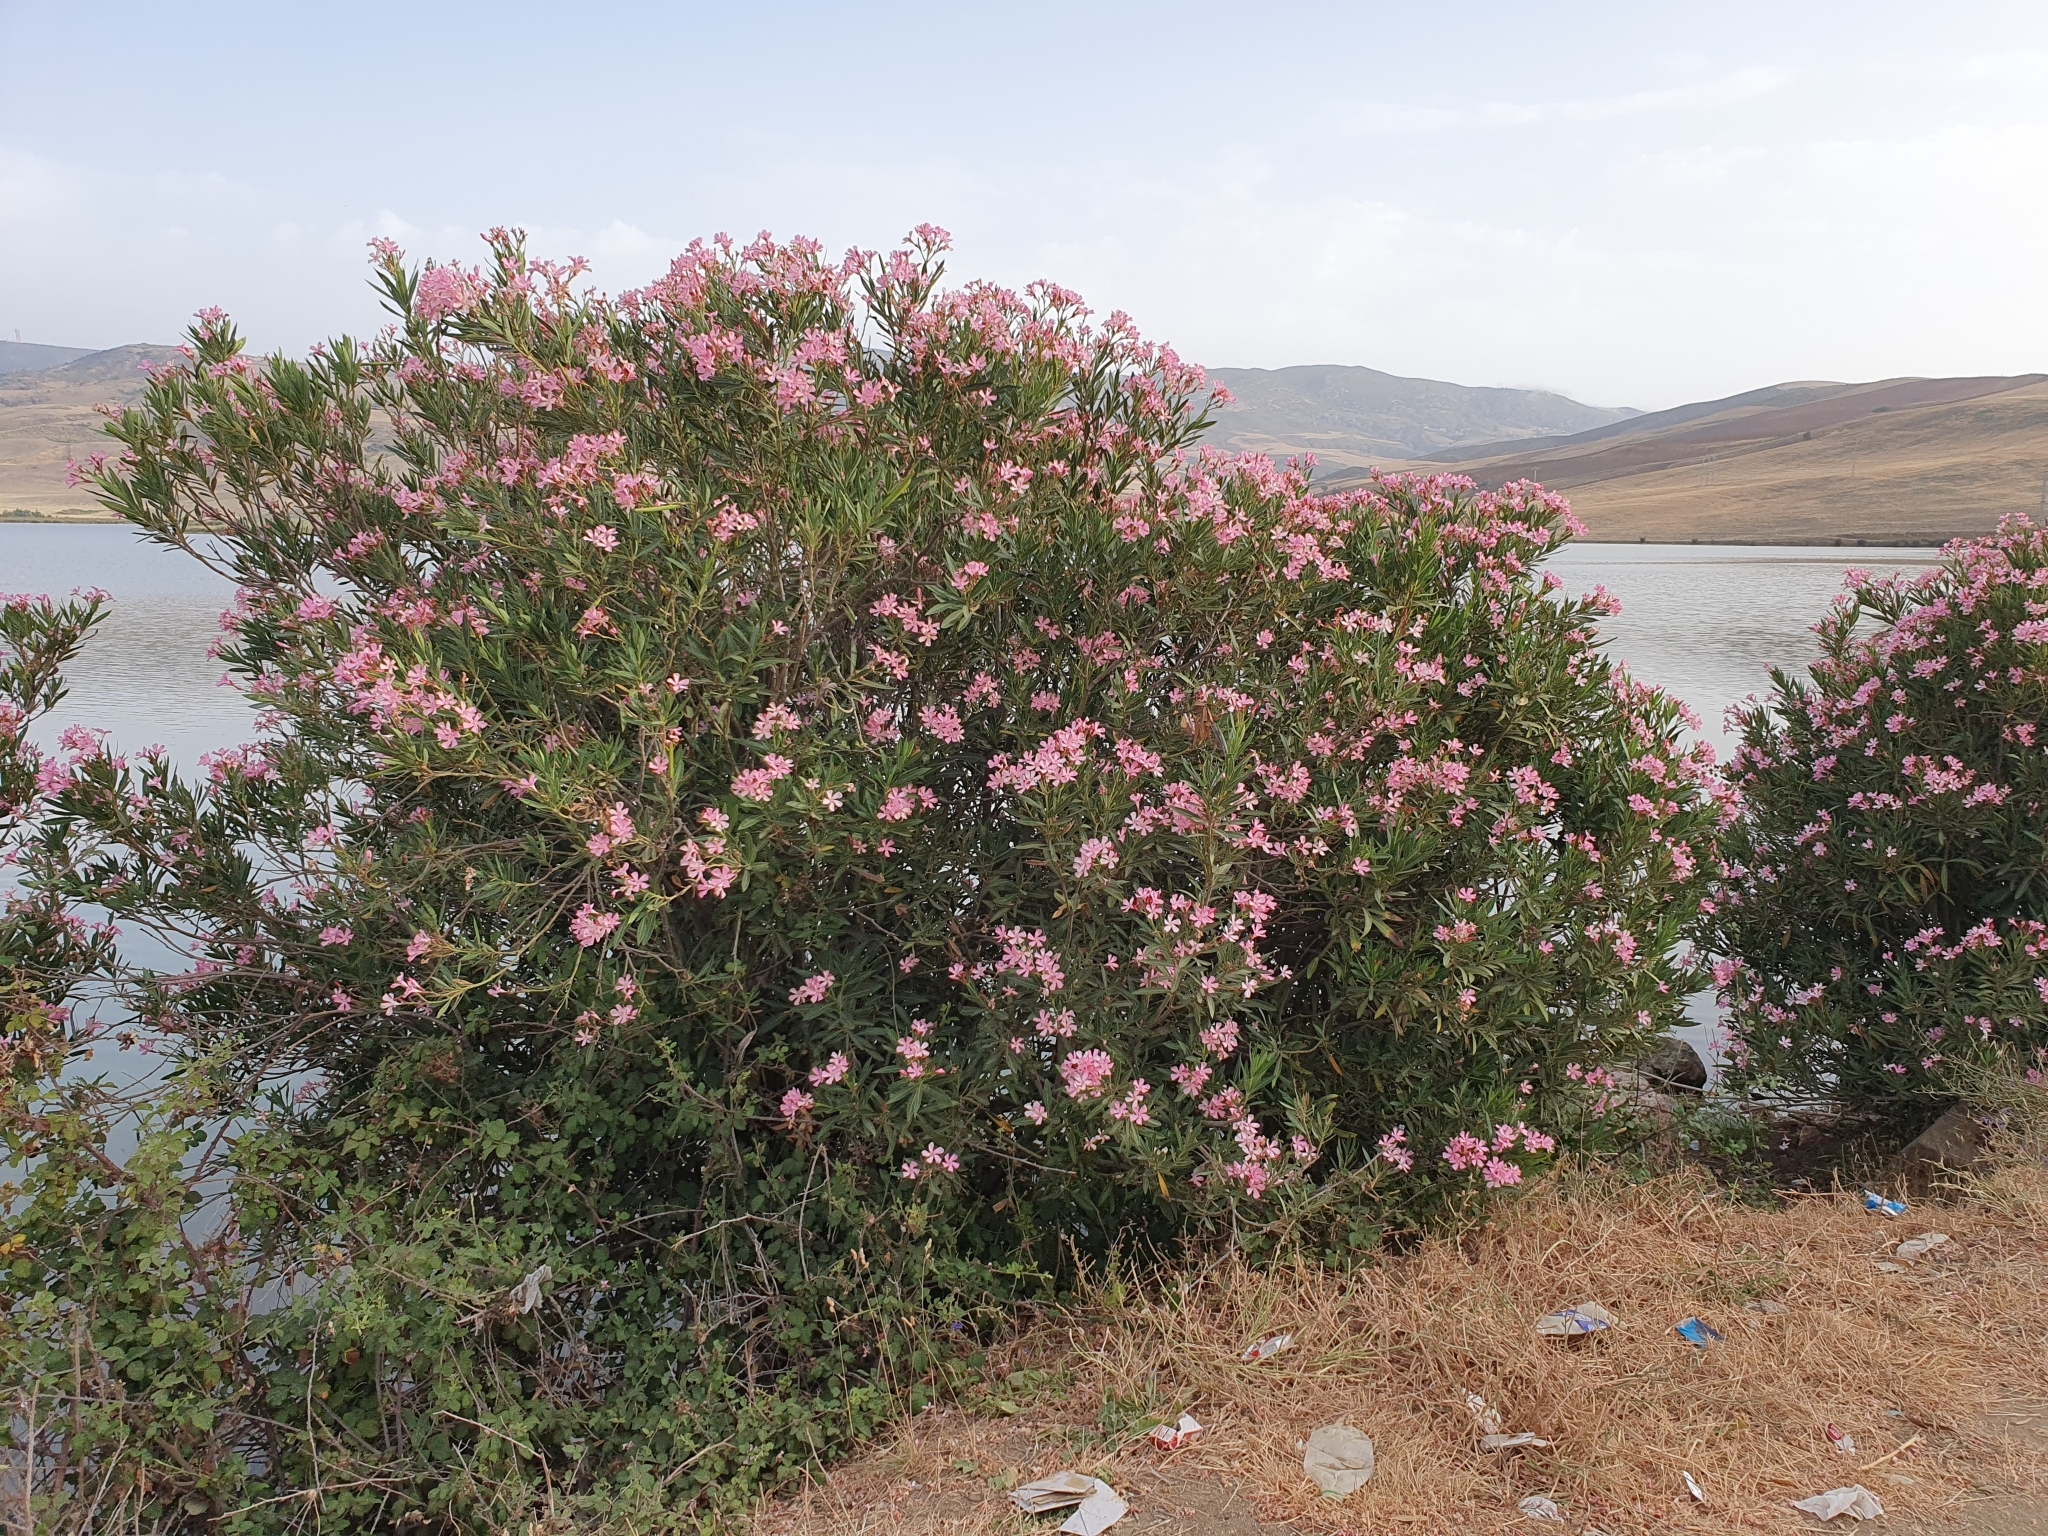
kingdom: Plantae
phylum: Tracheophyta
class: Magnoliopsida
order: Gentianales
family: Apocynaceae
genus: Nerium
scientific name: Nerium oleander
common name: Oleander
